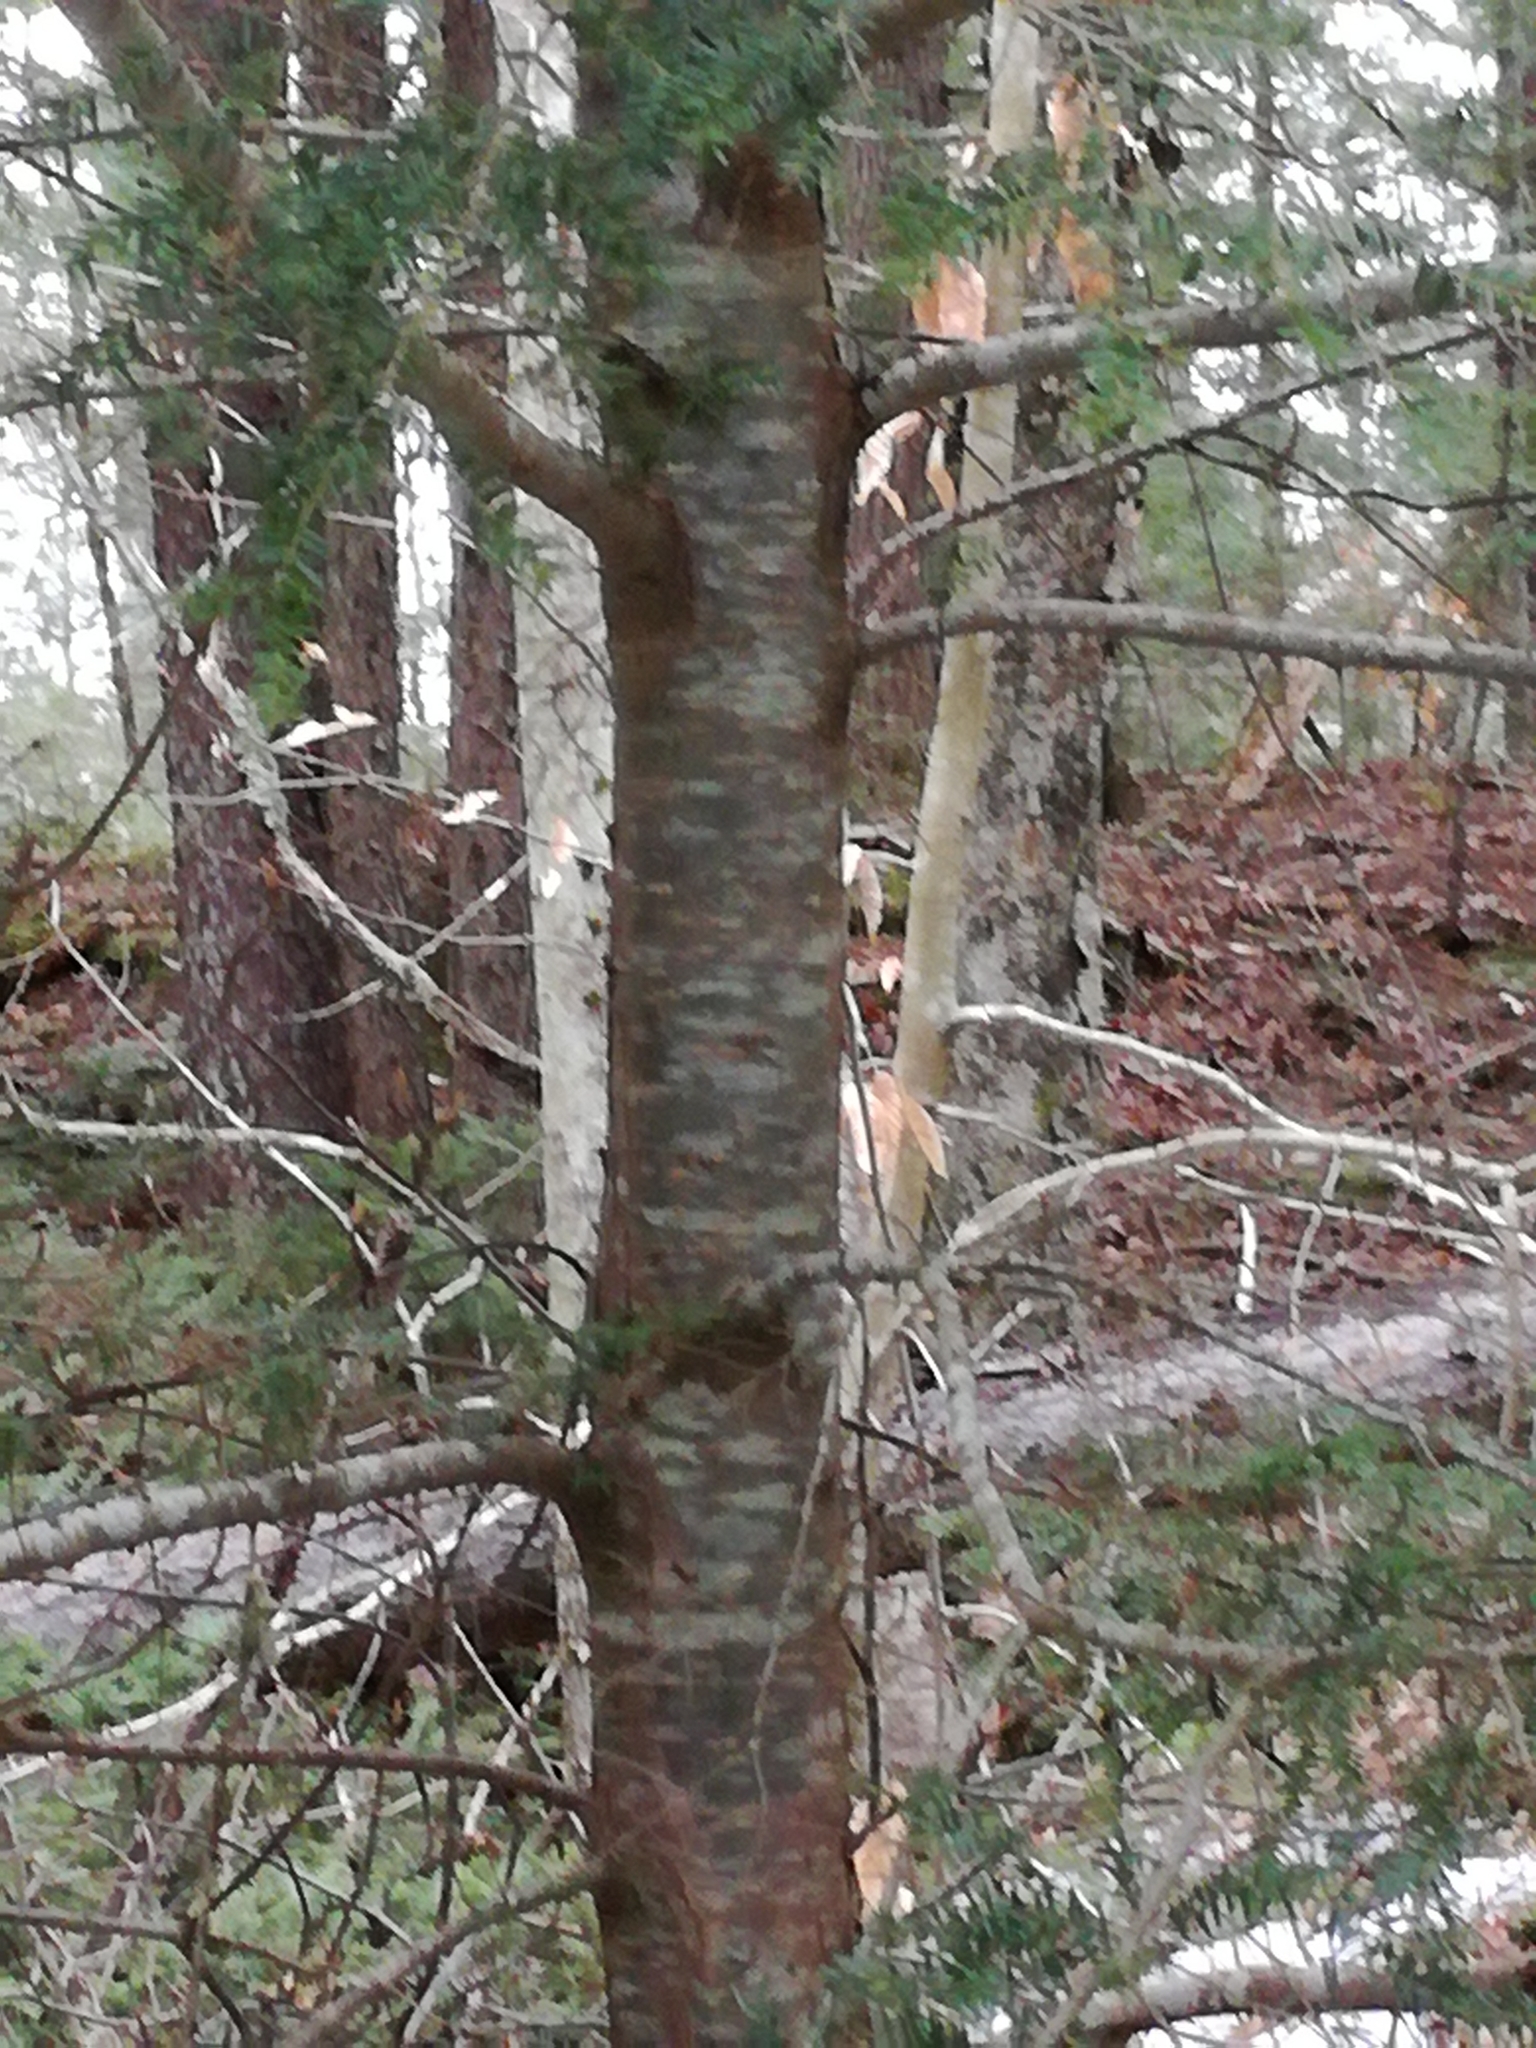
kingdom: Plantae
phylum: Tracheophyta
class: Pinopsida
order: Pinales
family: Pinaceae
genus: Tsuga
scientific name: Tsuga canadensis
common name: Eastern hemlock
